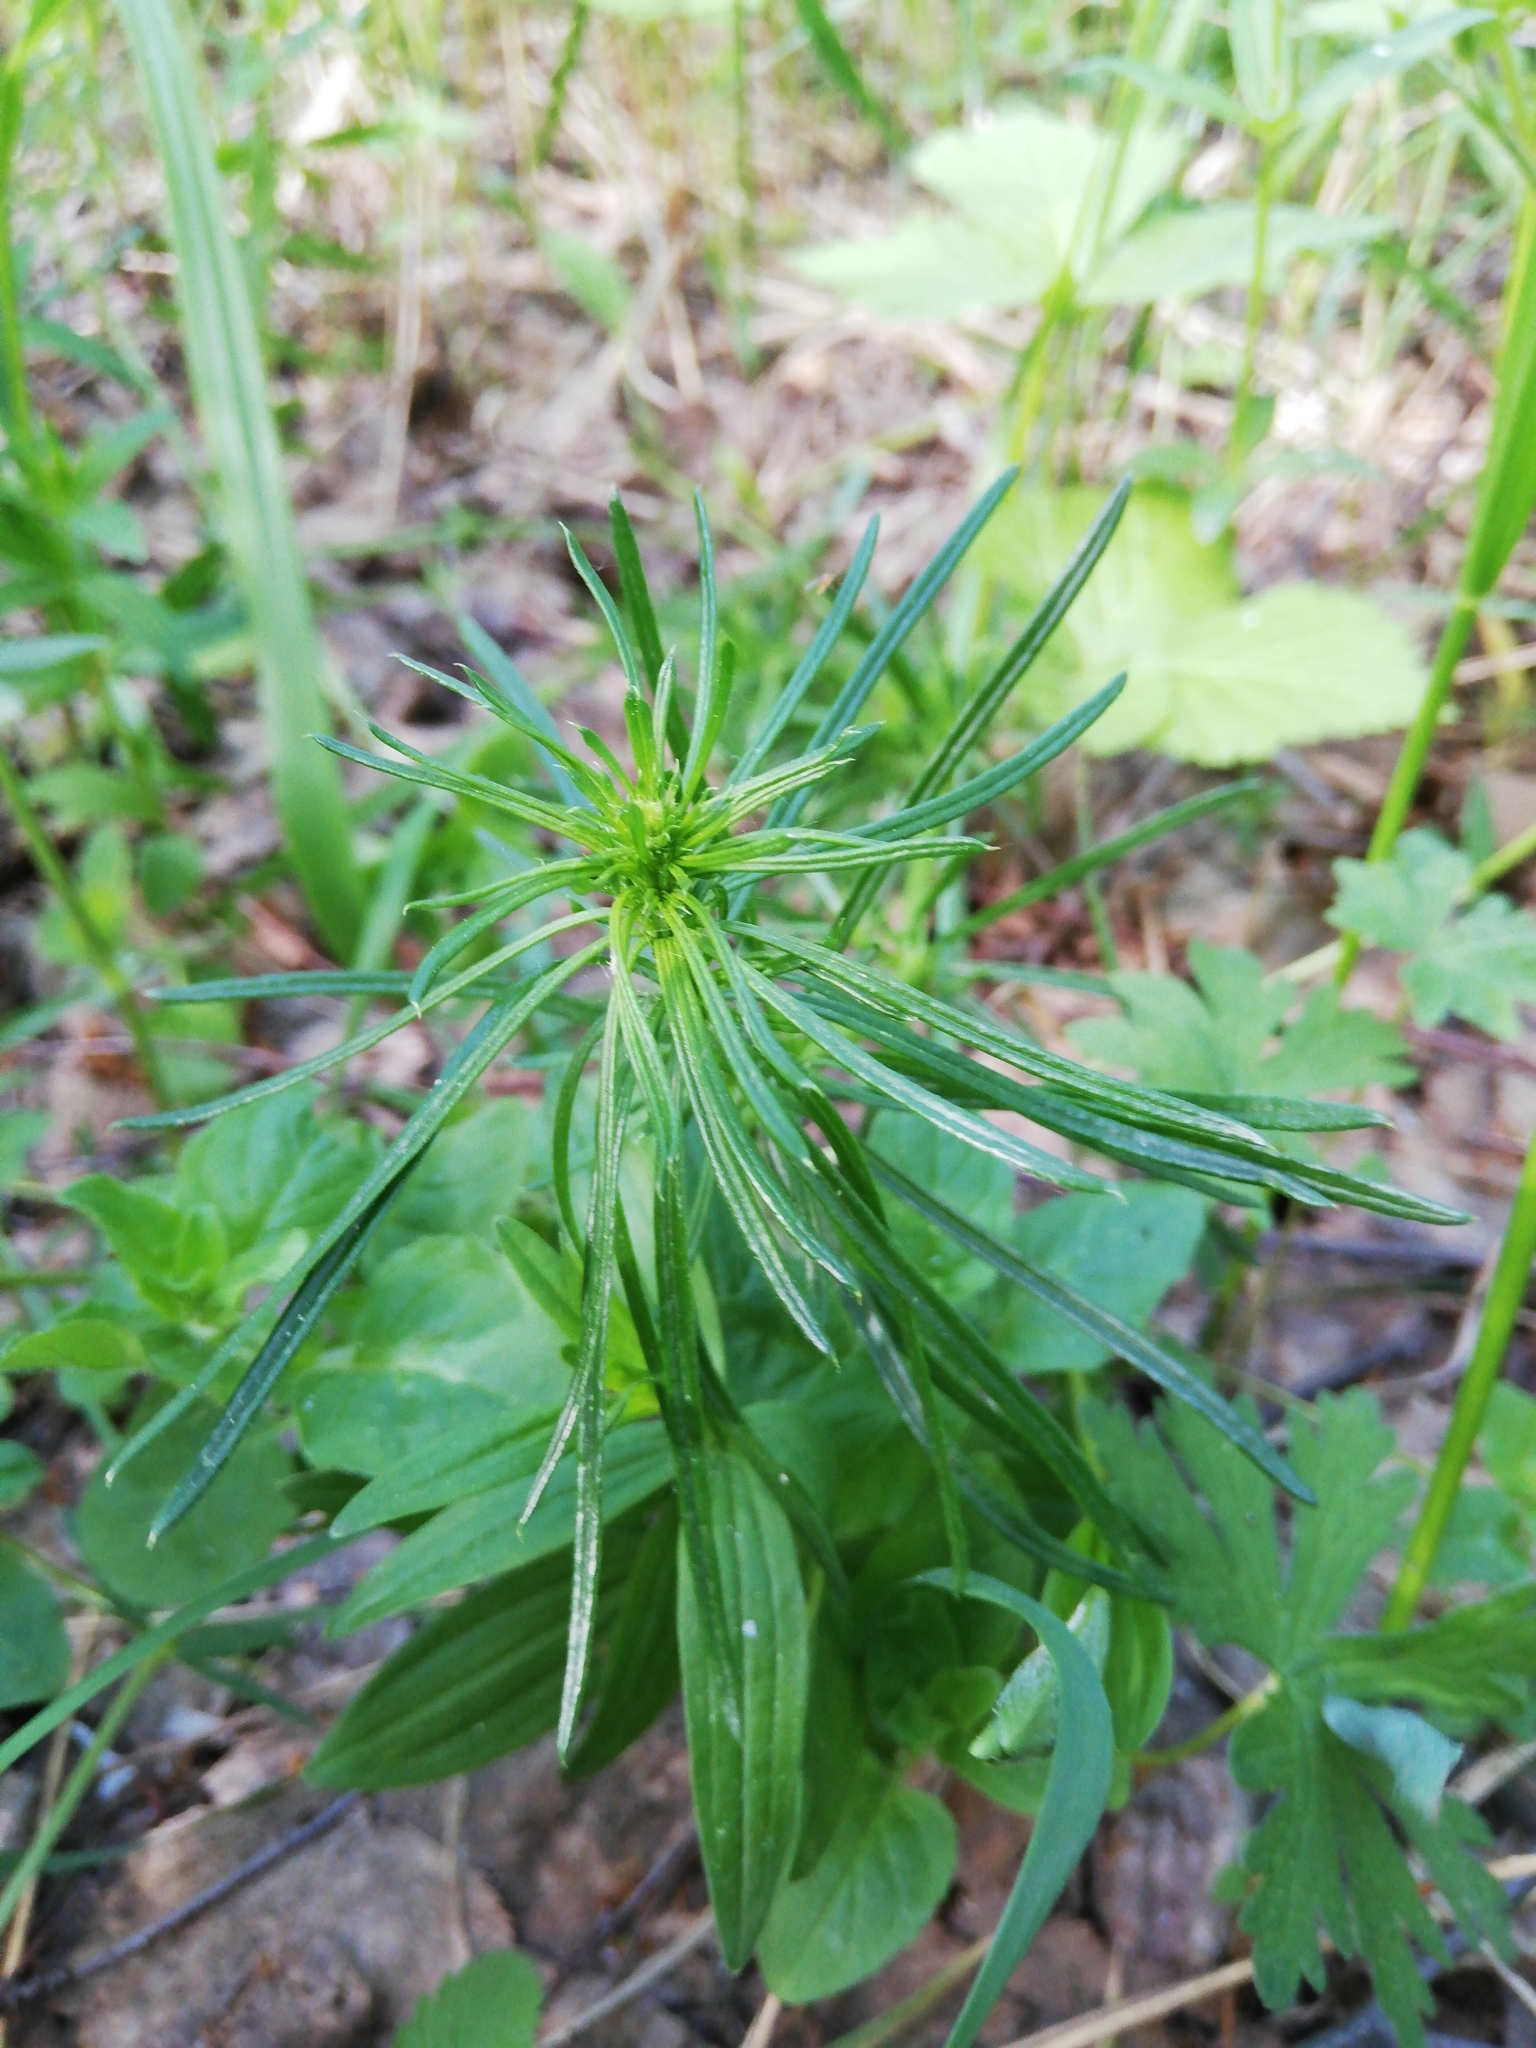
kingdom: Plantae
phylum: Tracheophyta
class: Magnoliopsida
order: Gentianales
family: Rubiaceae
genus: Galium
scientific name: Galium verum
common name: Lady's bedstraw
